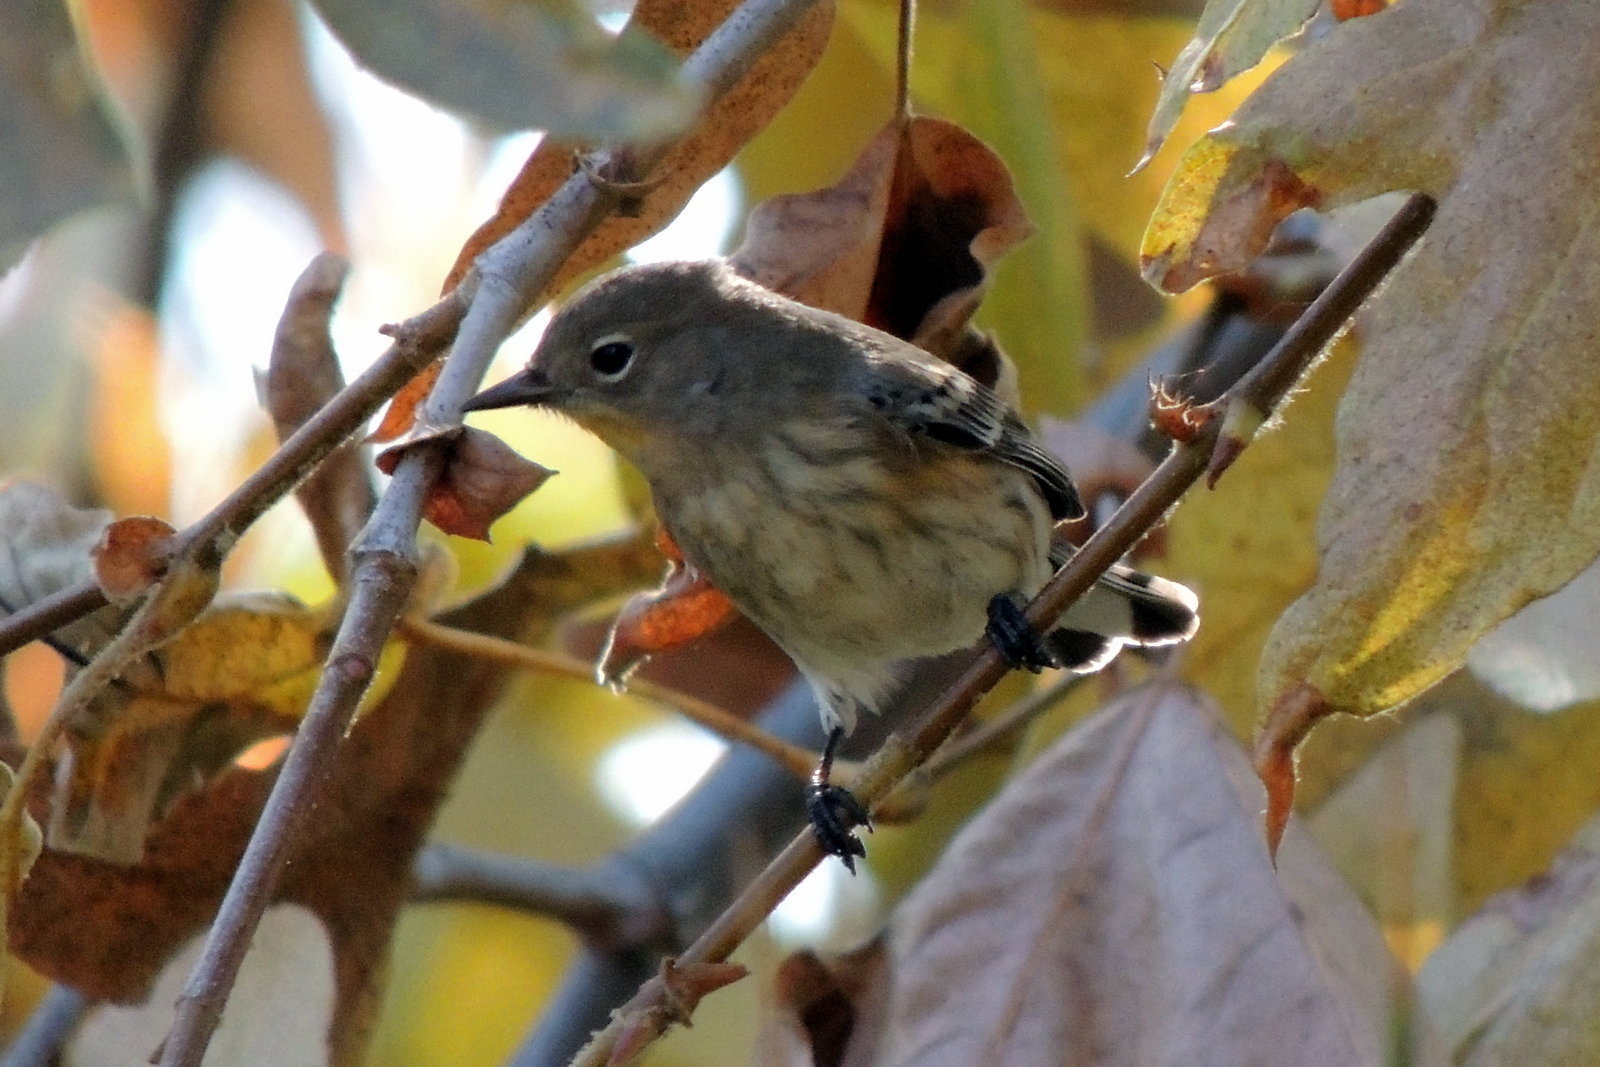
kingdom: Animalia
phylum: Chordata
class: Aves
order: Passeriformes
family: Parulidae
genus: Setophaga
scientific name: Setophaga coronata
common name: Myrtle warbler
